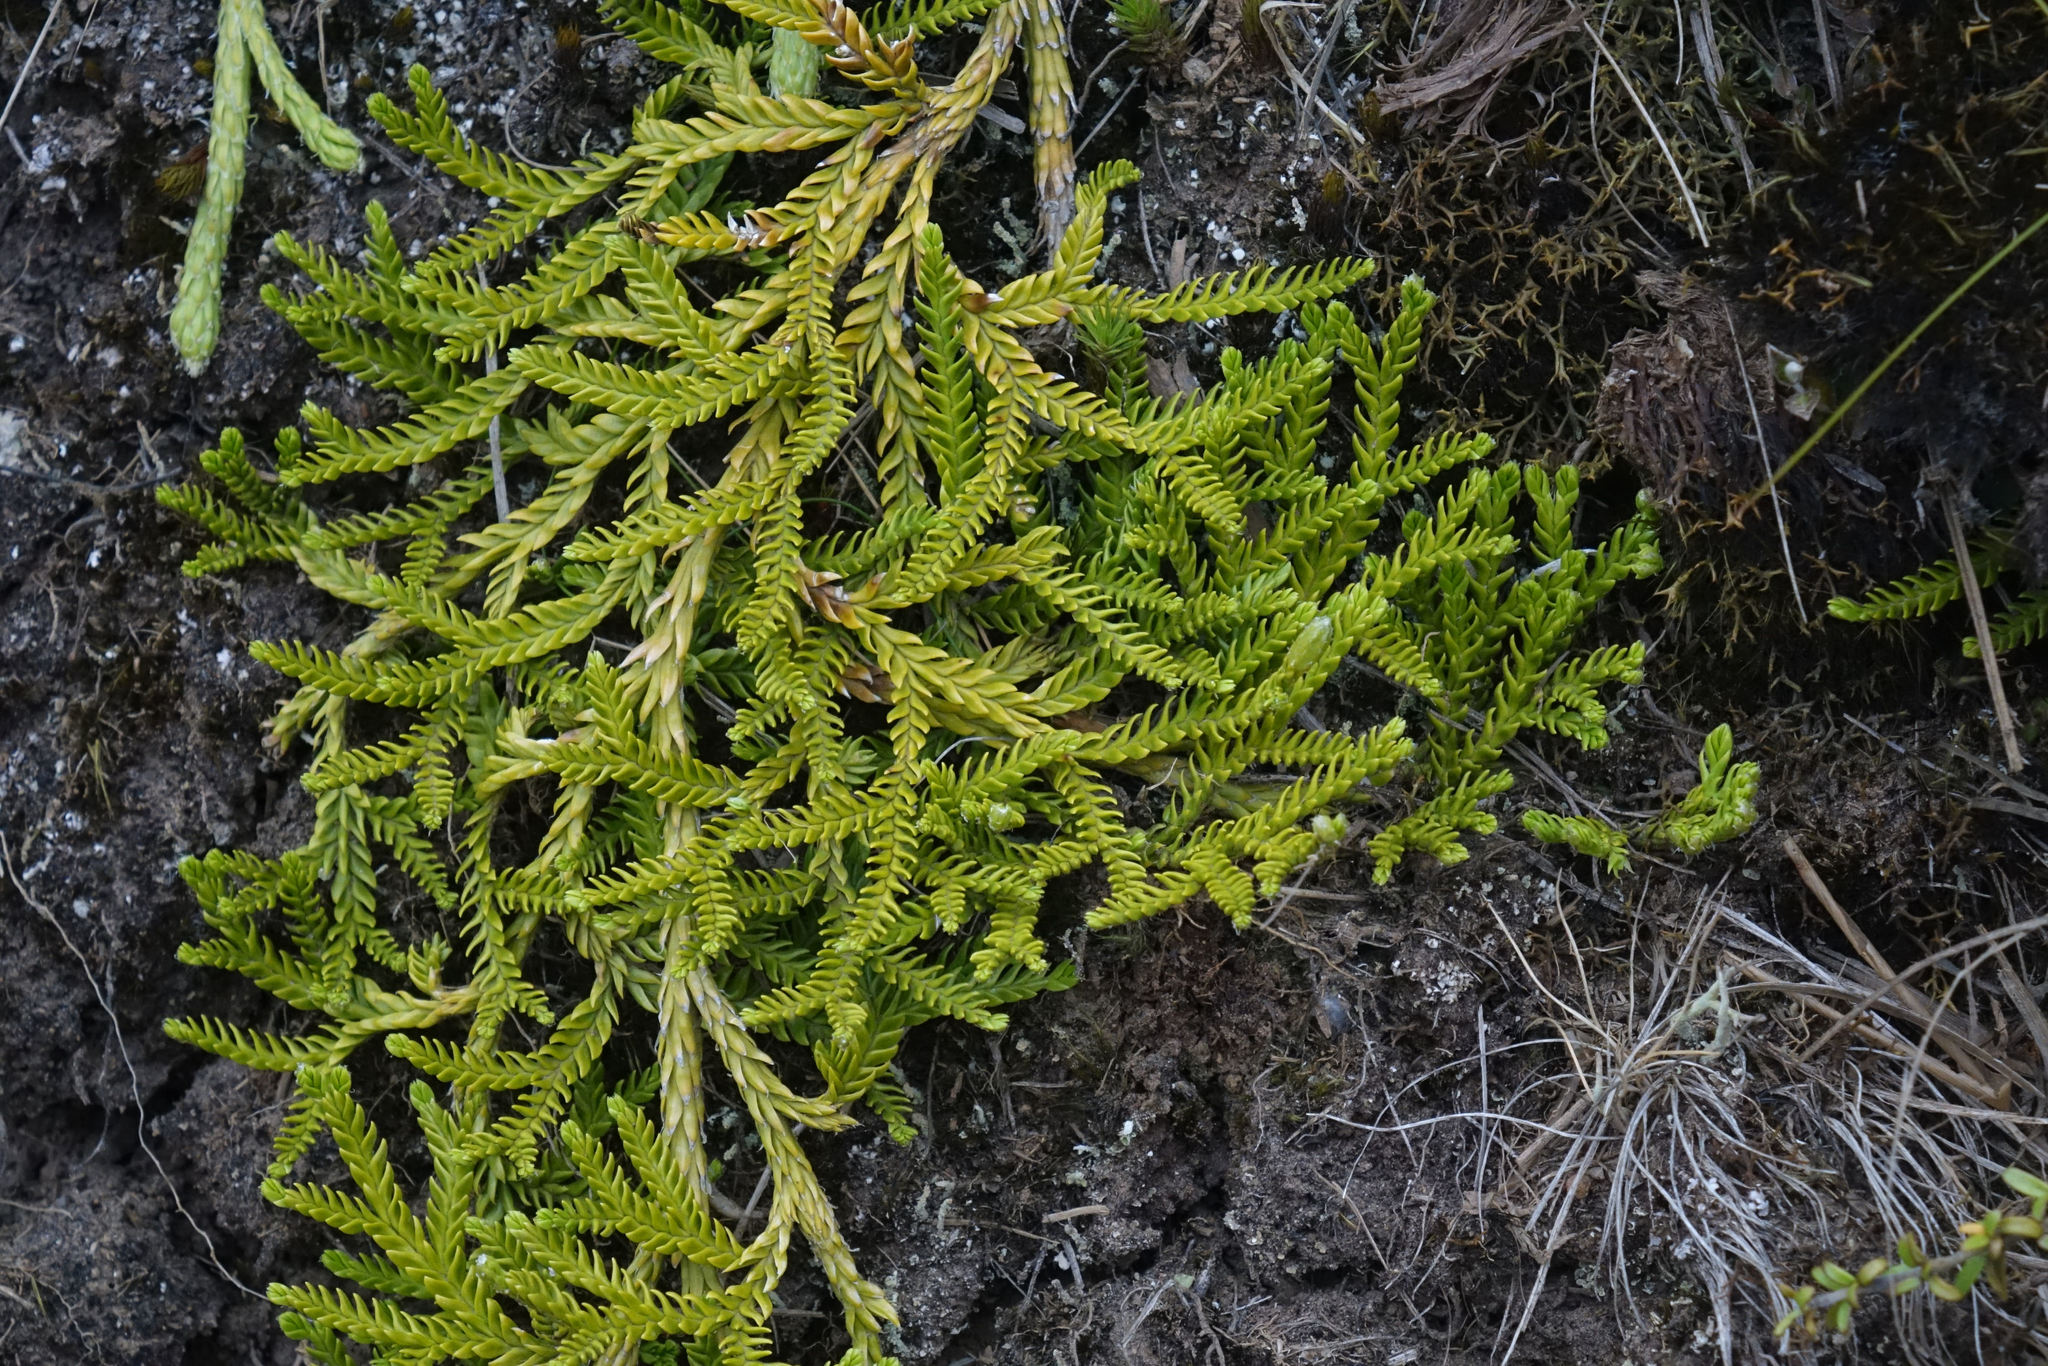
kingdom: Plantae
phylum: Tracheophyta
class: Lycopodiopsida
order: Lycopodiales
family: Lycopodiaceae
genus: Diphasium
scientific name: Diphasium scariosum
